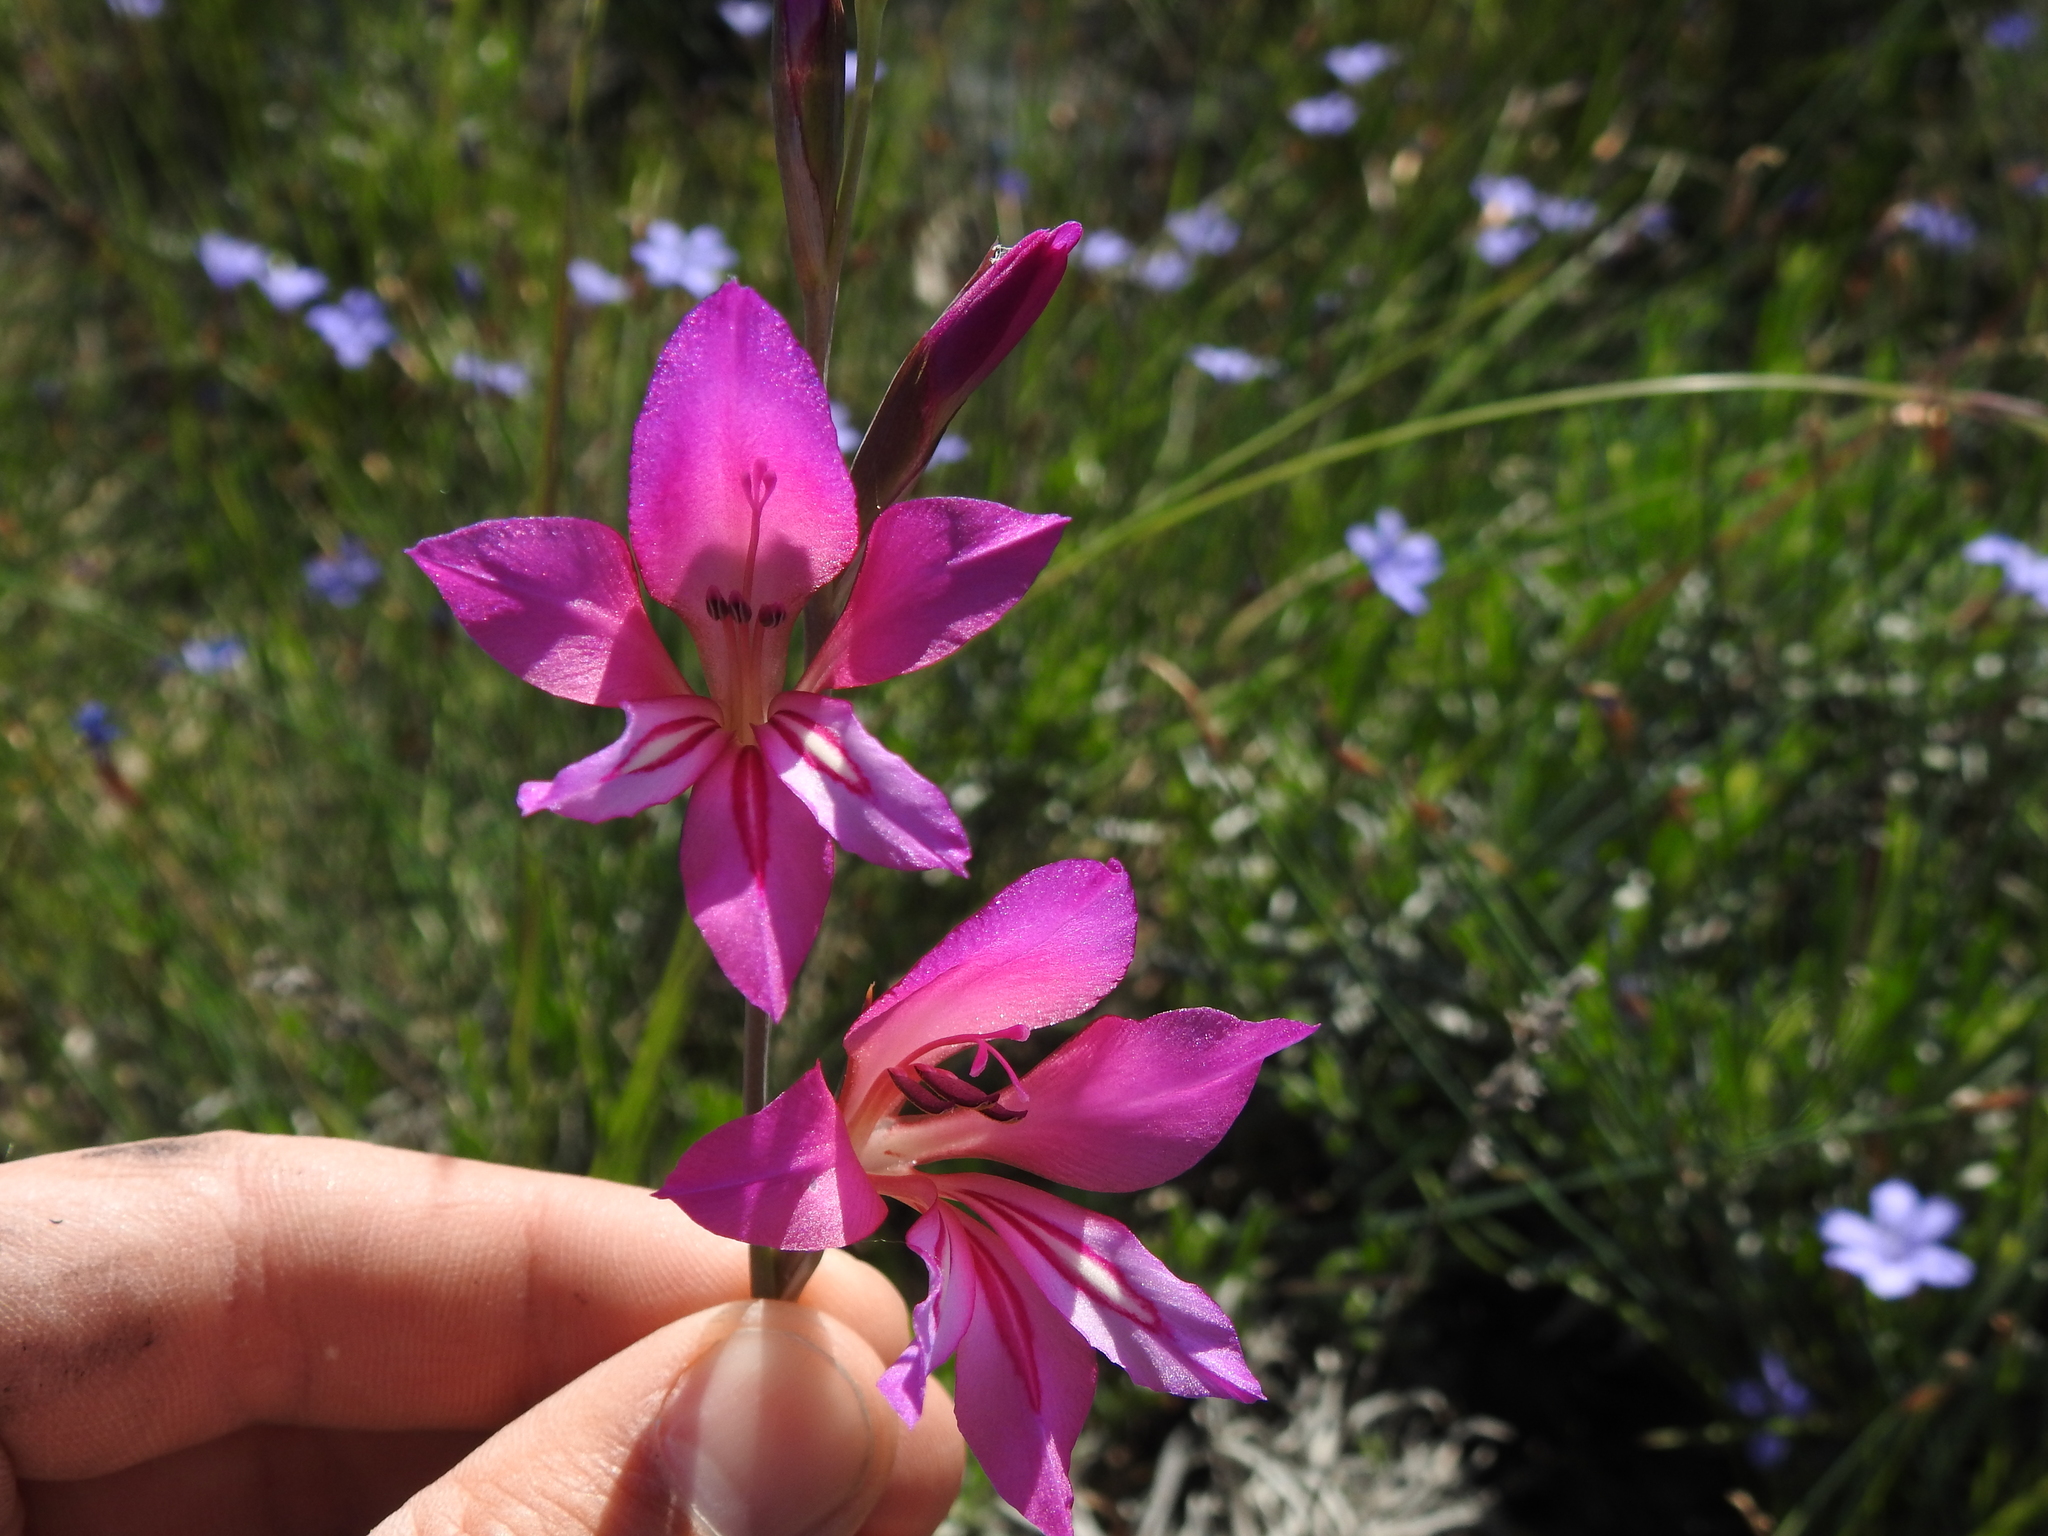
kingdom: Plantae
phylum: Tracheophyta
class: Liliopsida
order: Asparagales
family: Iridaceae
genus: Gladiolus
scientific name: Gladiolus dubius
